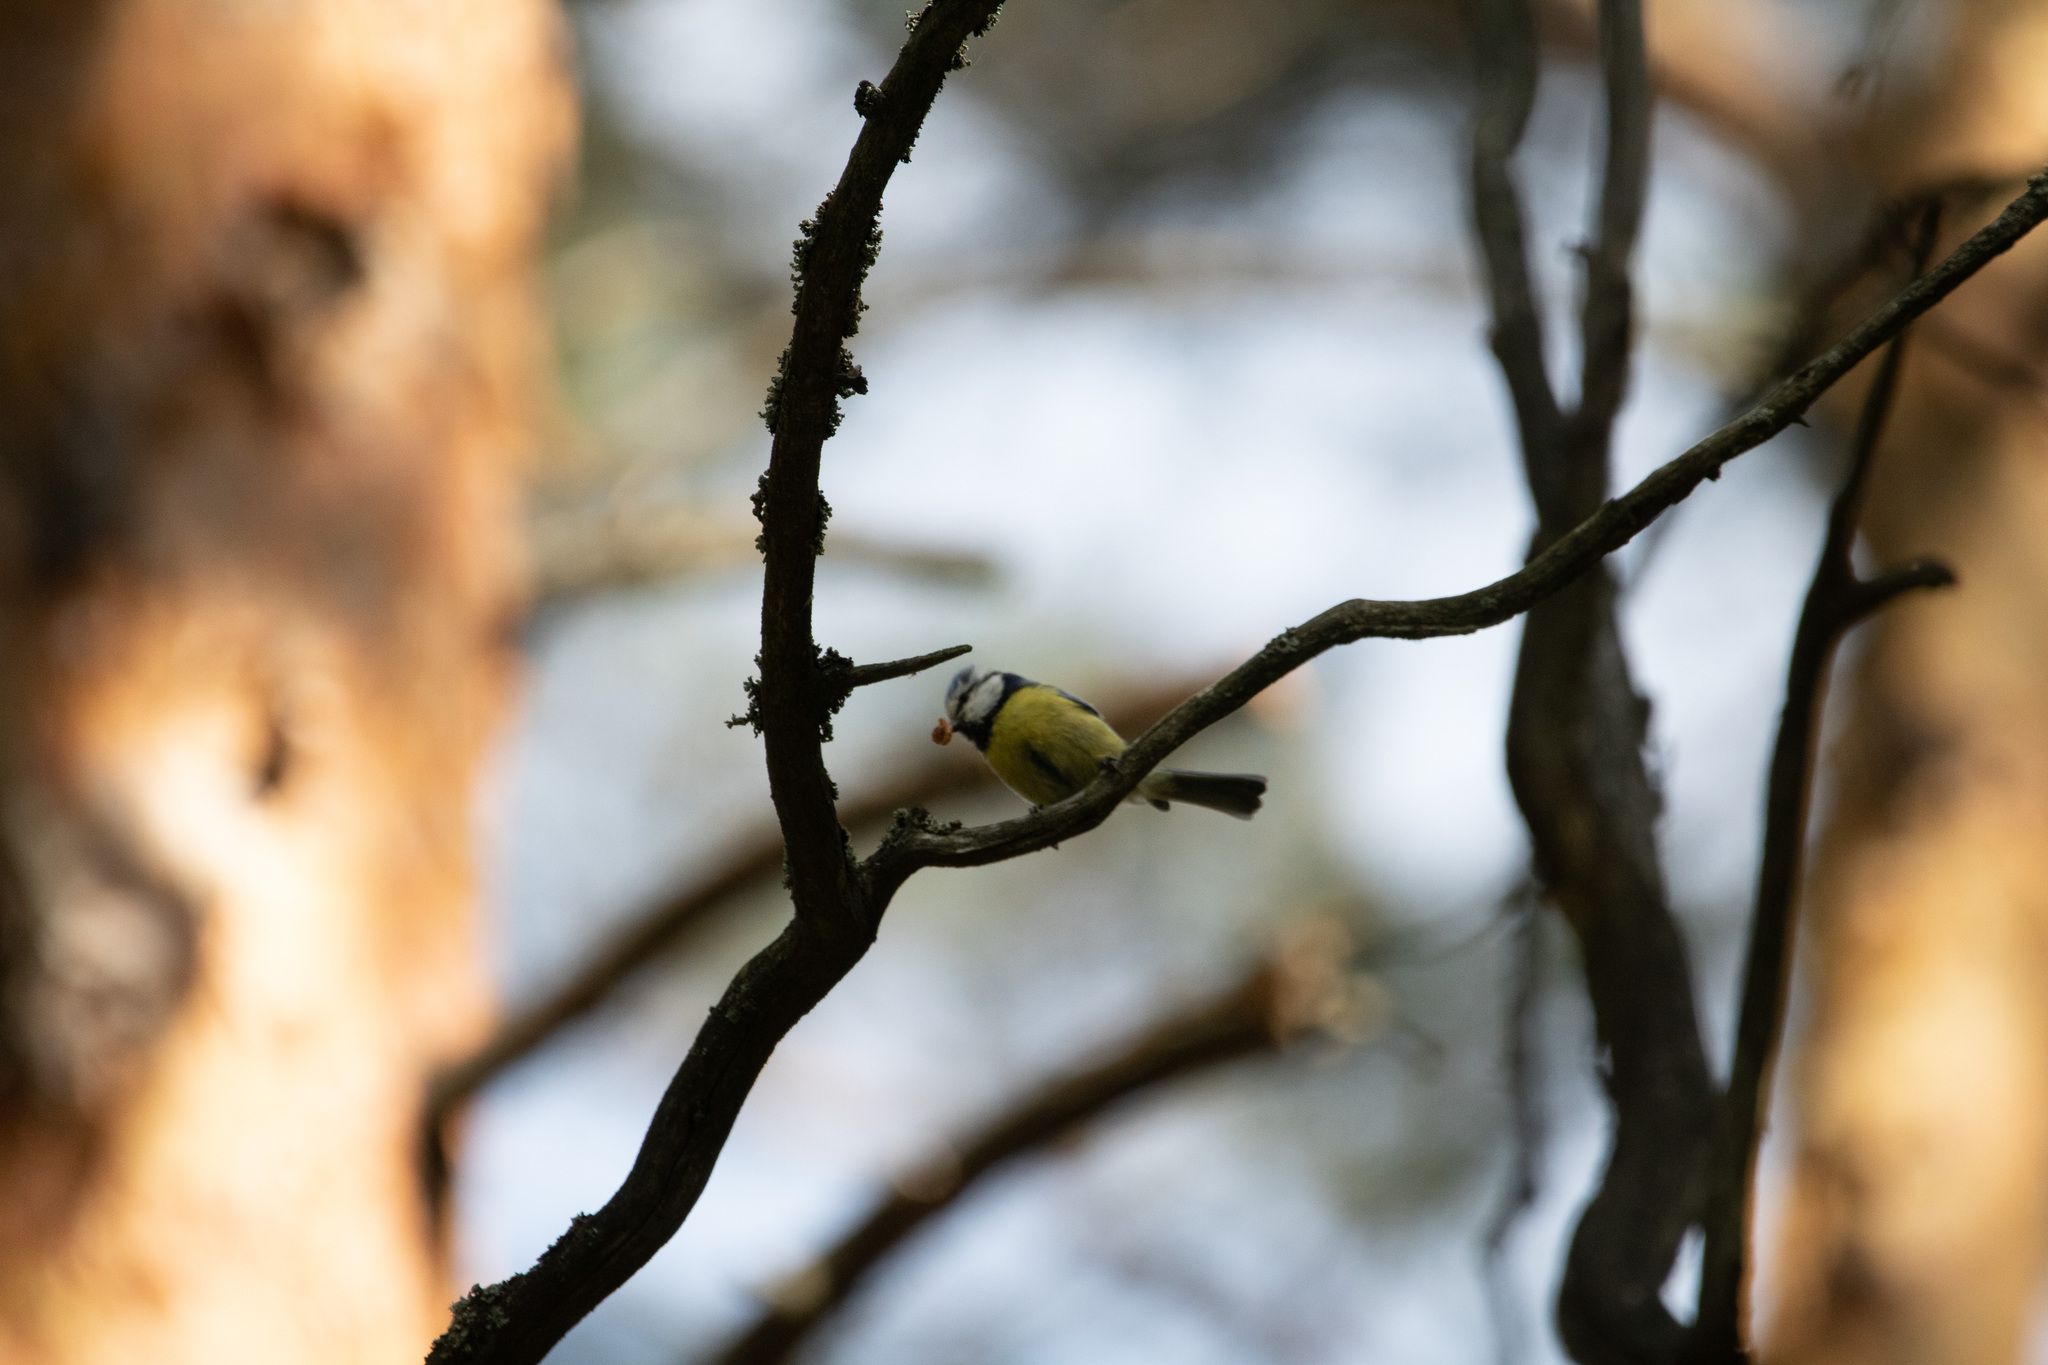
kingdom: Animalia
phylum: Chordata
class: Aves
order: Passeriformes
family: Paridae
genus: Cyanistes
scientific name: Cyanistes caeruleus
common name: Eurasian blue tit
